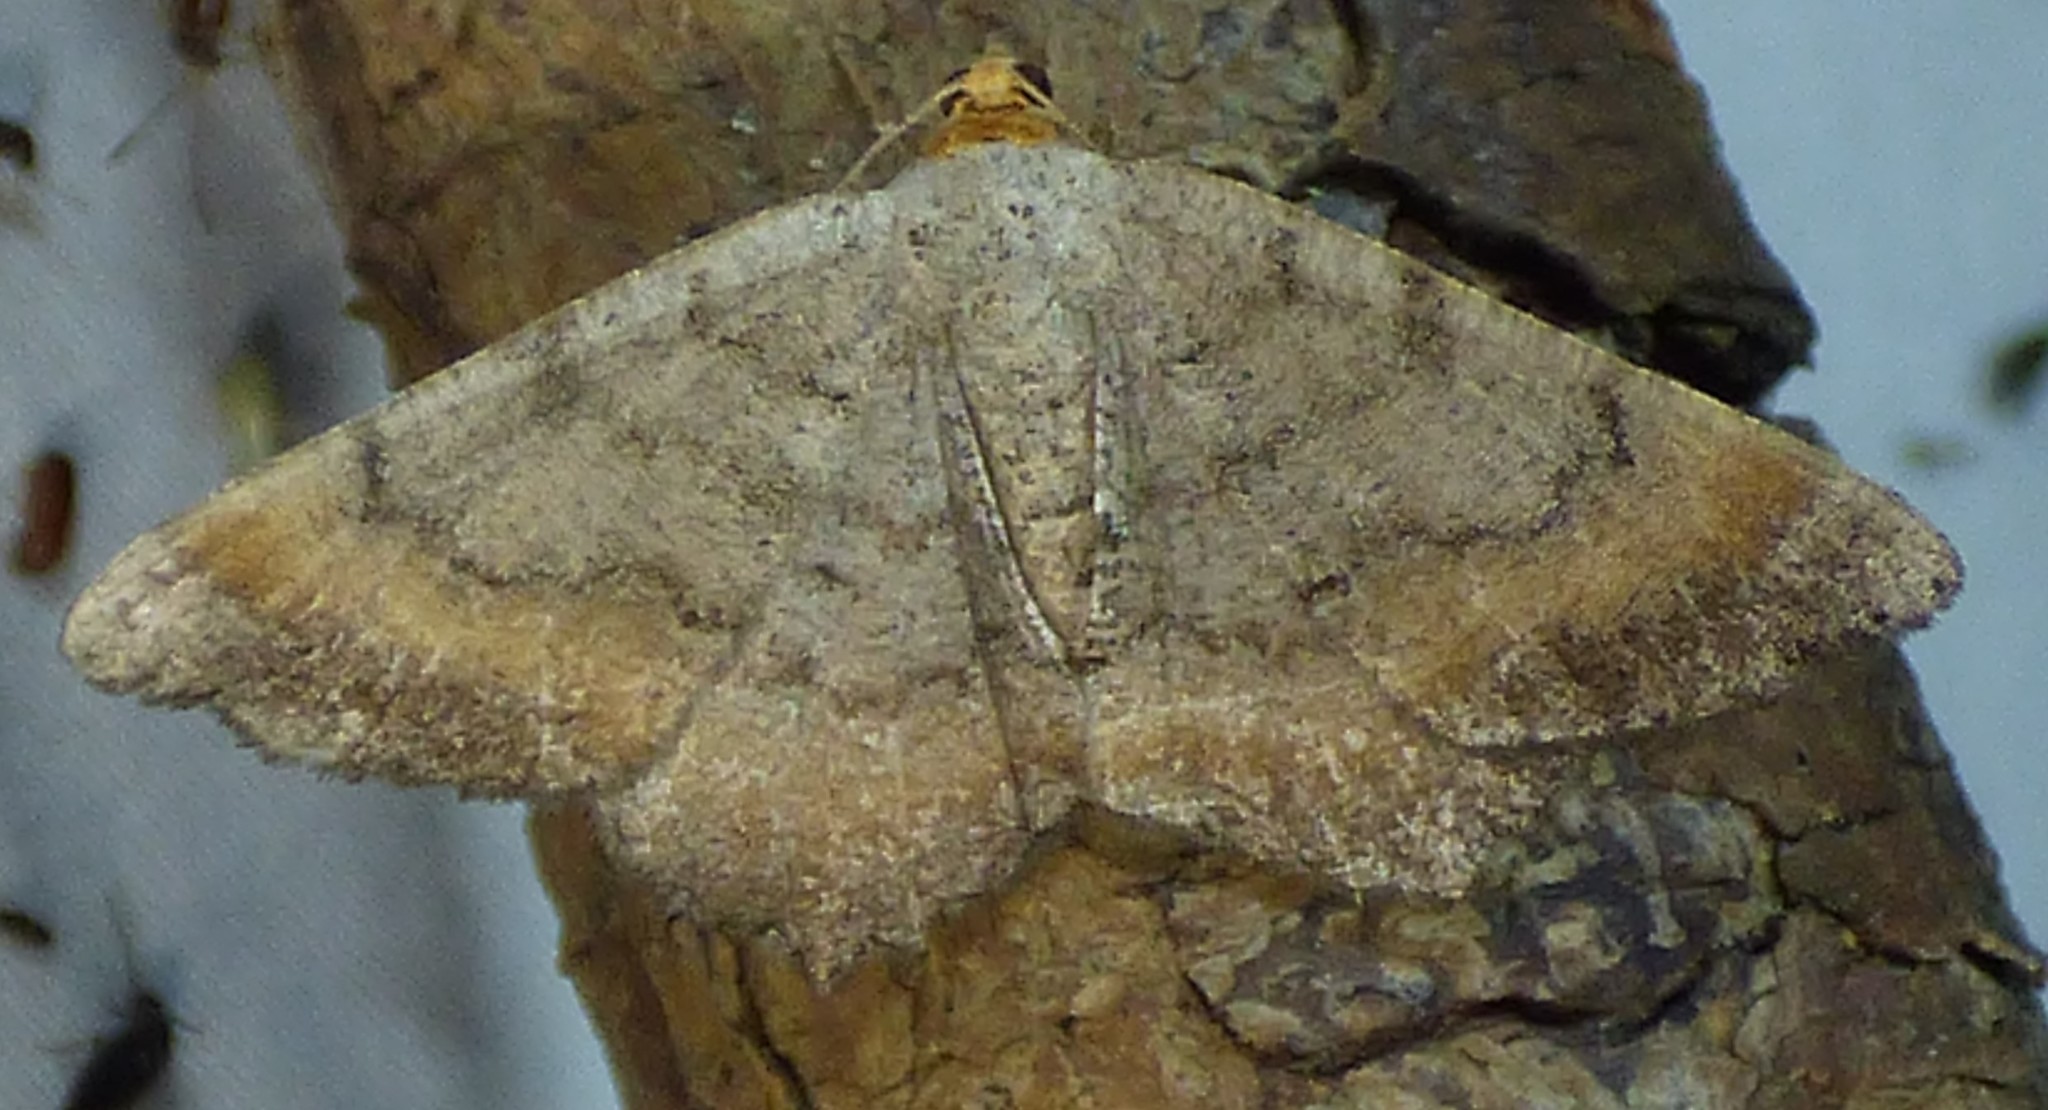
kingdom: Animalia
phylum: Arthropoda
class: Insecta
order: Lepidoptera
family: Geometridae
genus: Macaria
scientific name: Macaria distribuaria
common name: Southern chocolate angle
